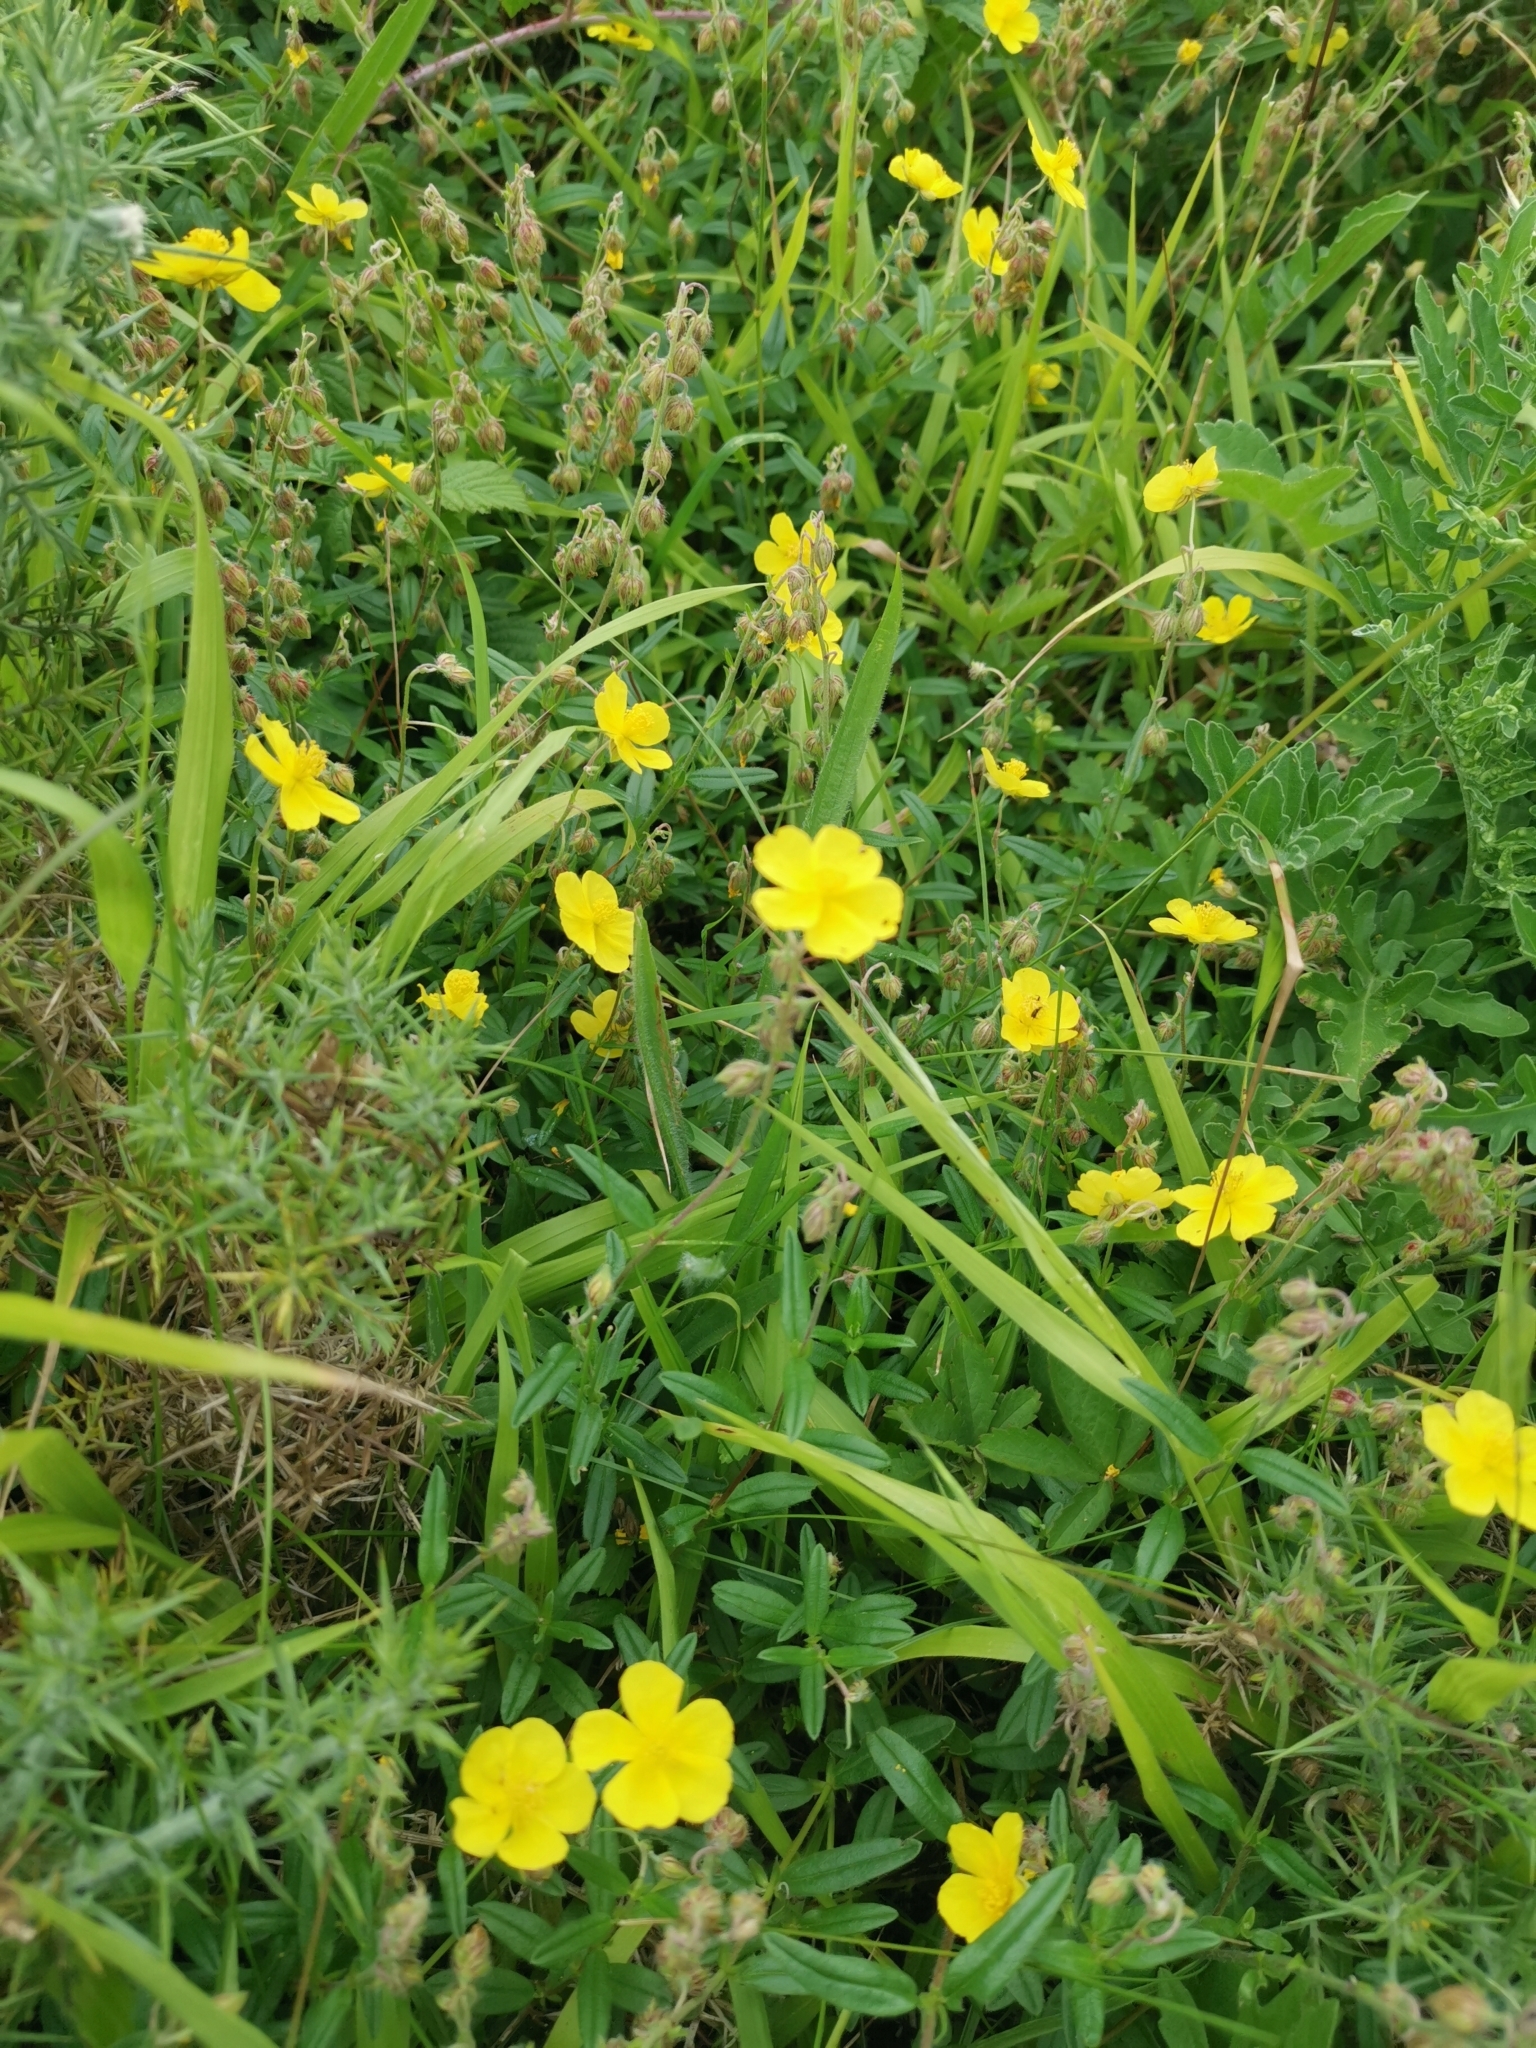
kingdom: Plantae
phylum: Tracheophyta
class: Magnoliopsida
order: Malvales
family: Cistaceae
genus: Helianthemum
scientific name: Helianthemum nummularium
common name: Common rock-rose
